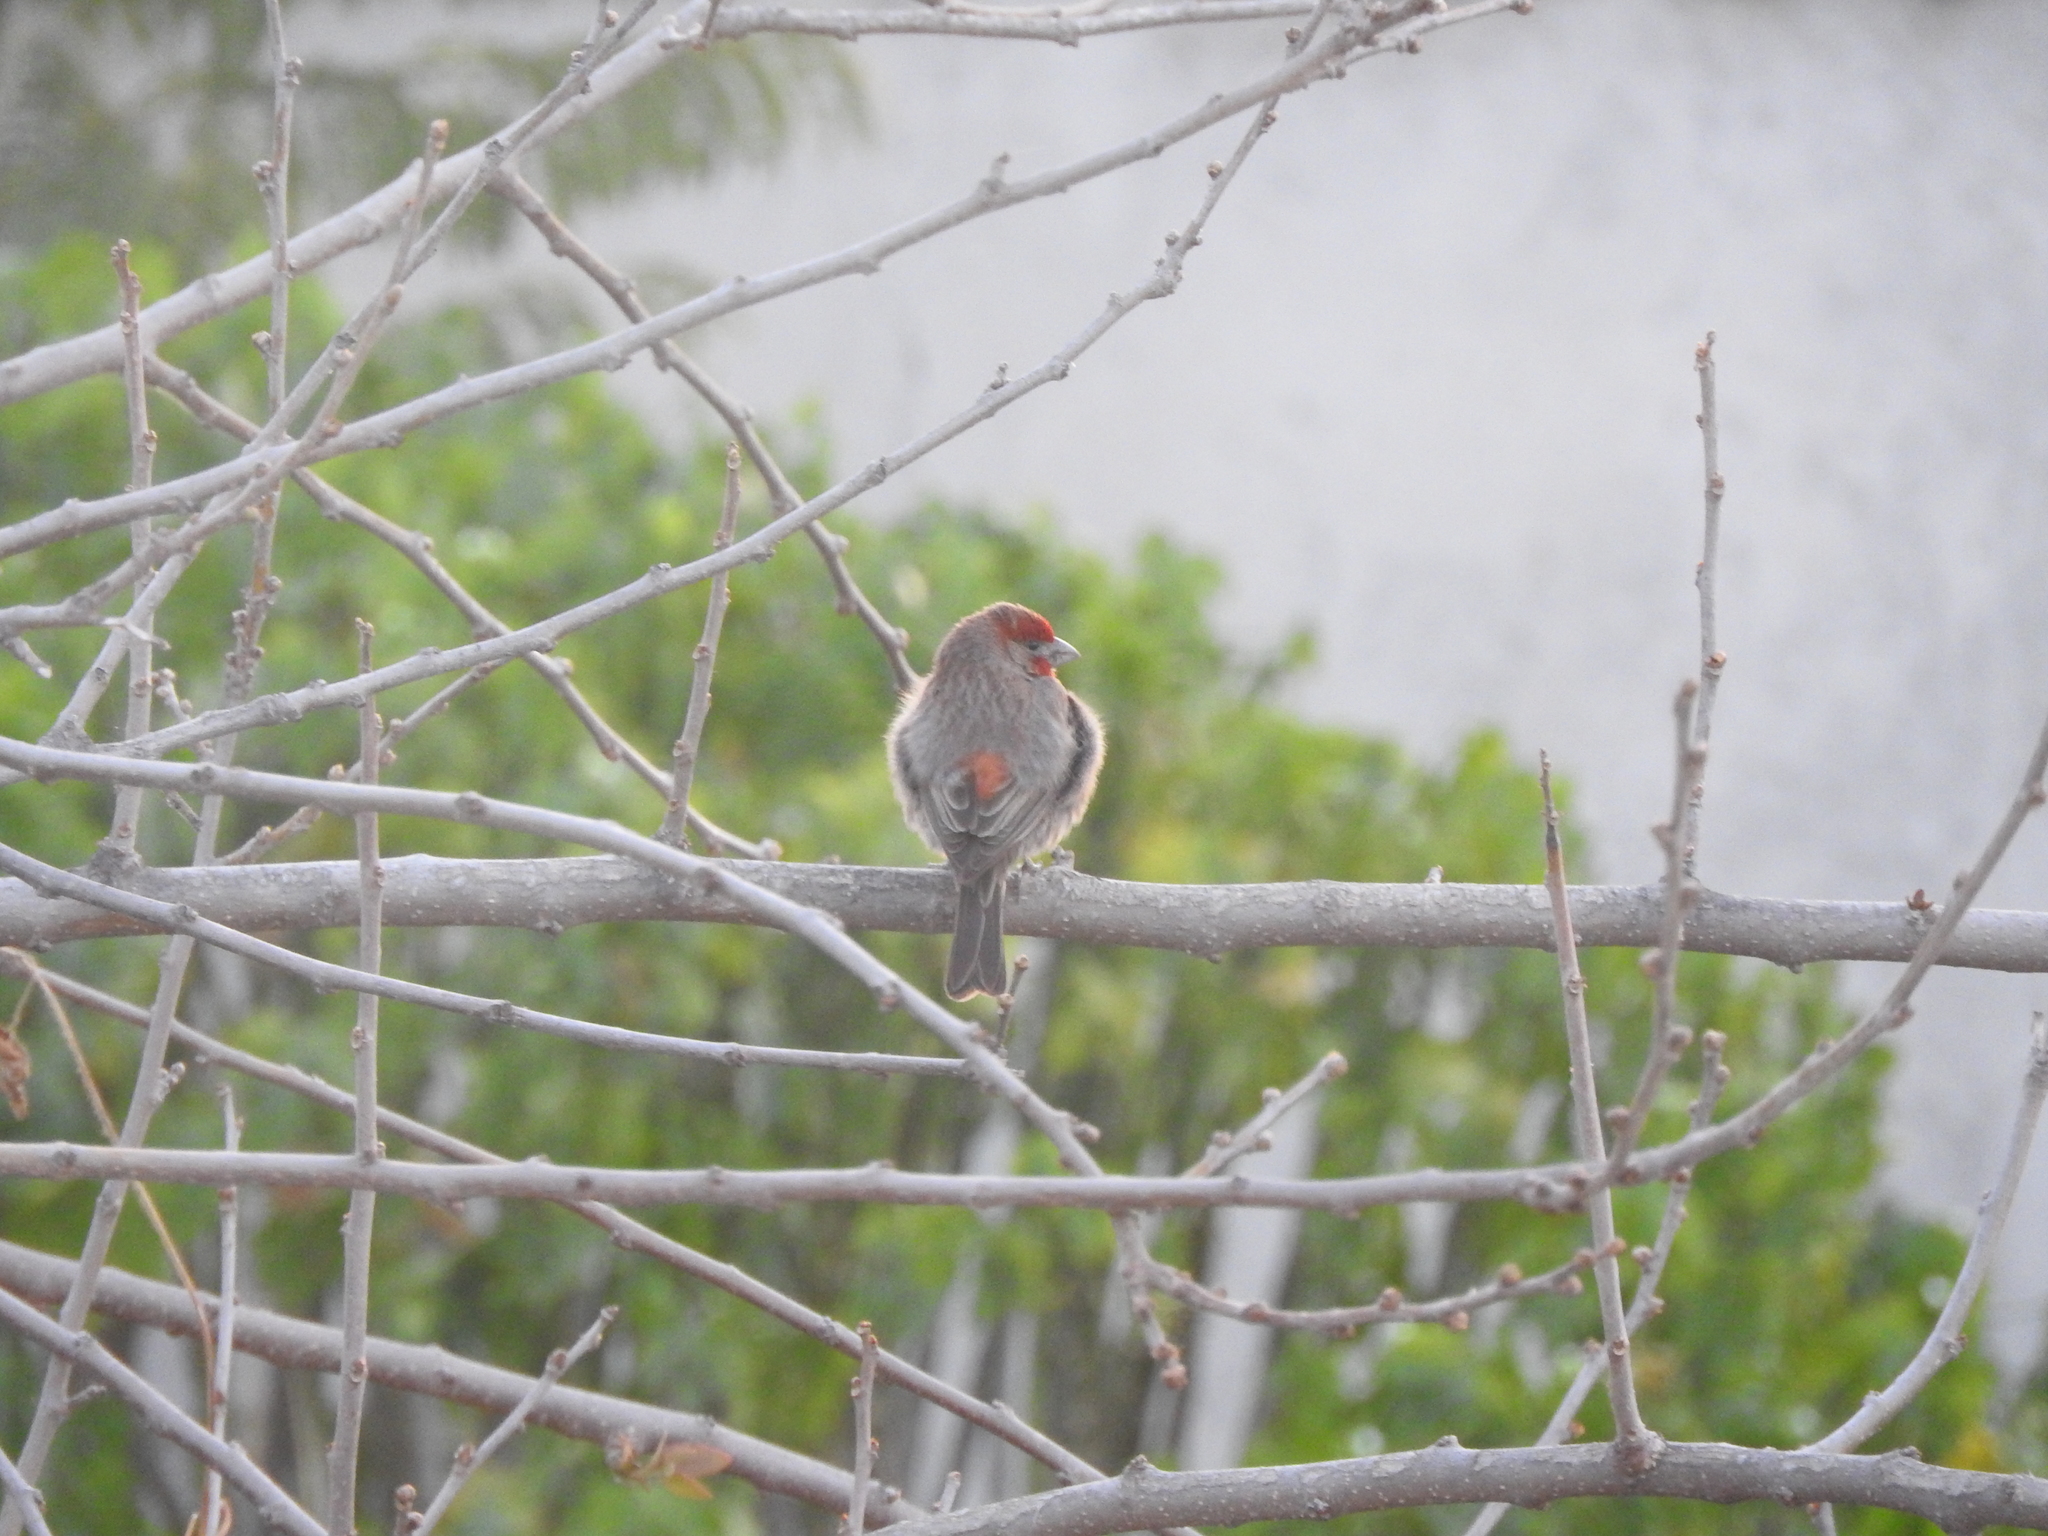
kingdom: Animalia
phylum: Chordata
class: Aves
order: Passeriformes
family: Fringillidae
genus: Haemorhous
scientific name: Haemorhous mexicanus
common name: House finch
